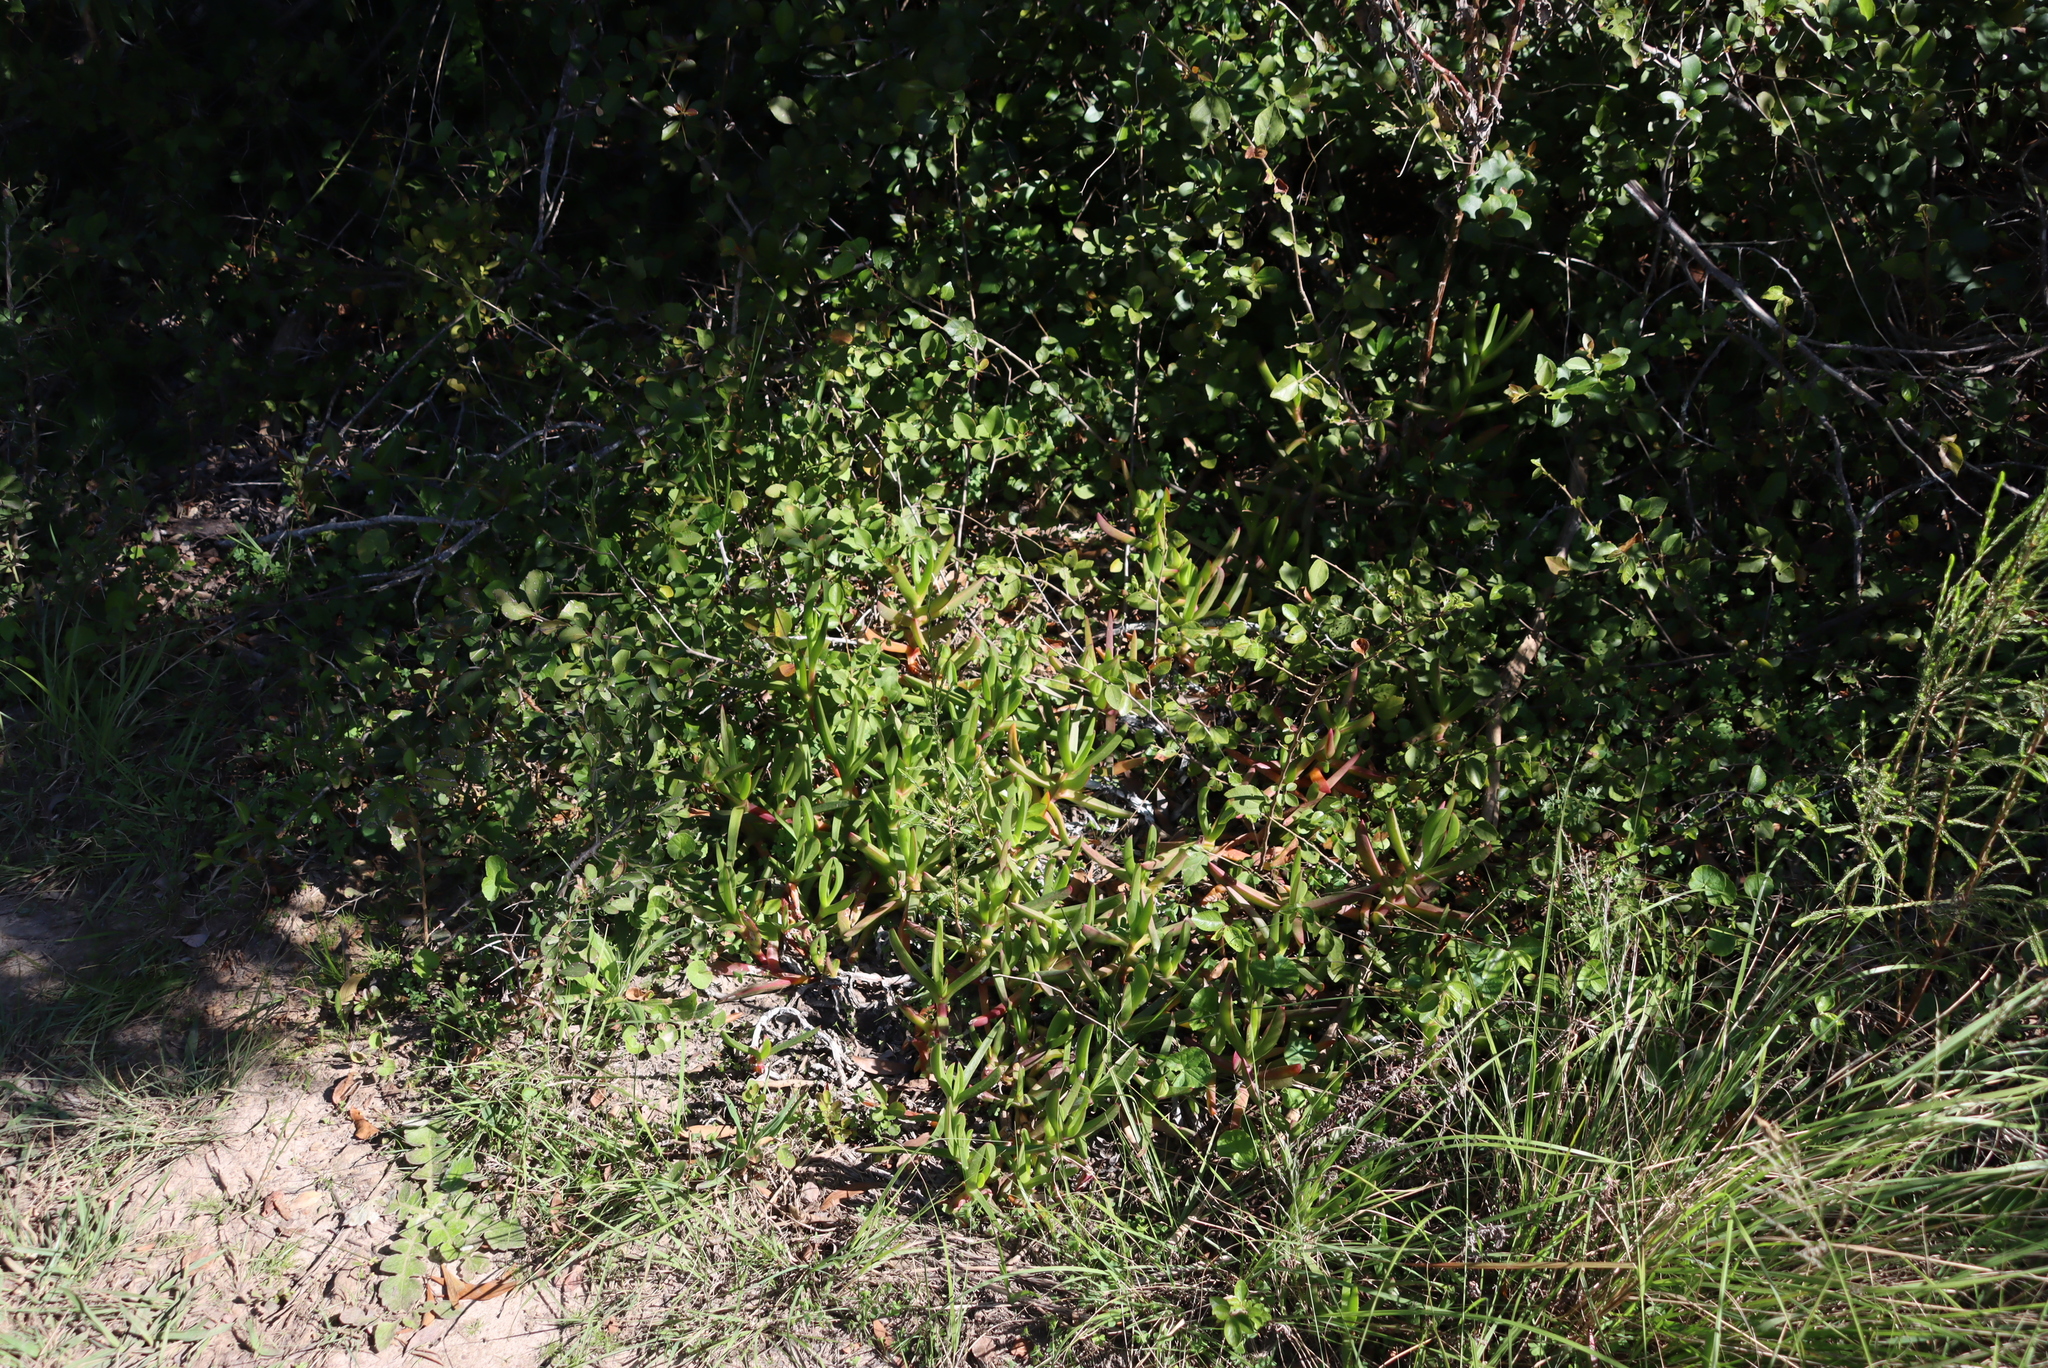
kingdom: Plantae
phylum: Tracheophyta
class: Magnoliopsida
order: Caryophyllales
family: Aizoaceae
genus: Carpobrotus
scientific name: Carpobrotus deliciosus
